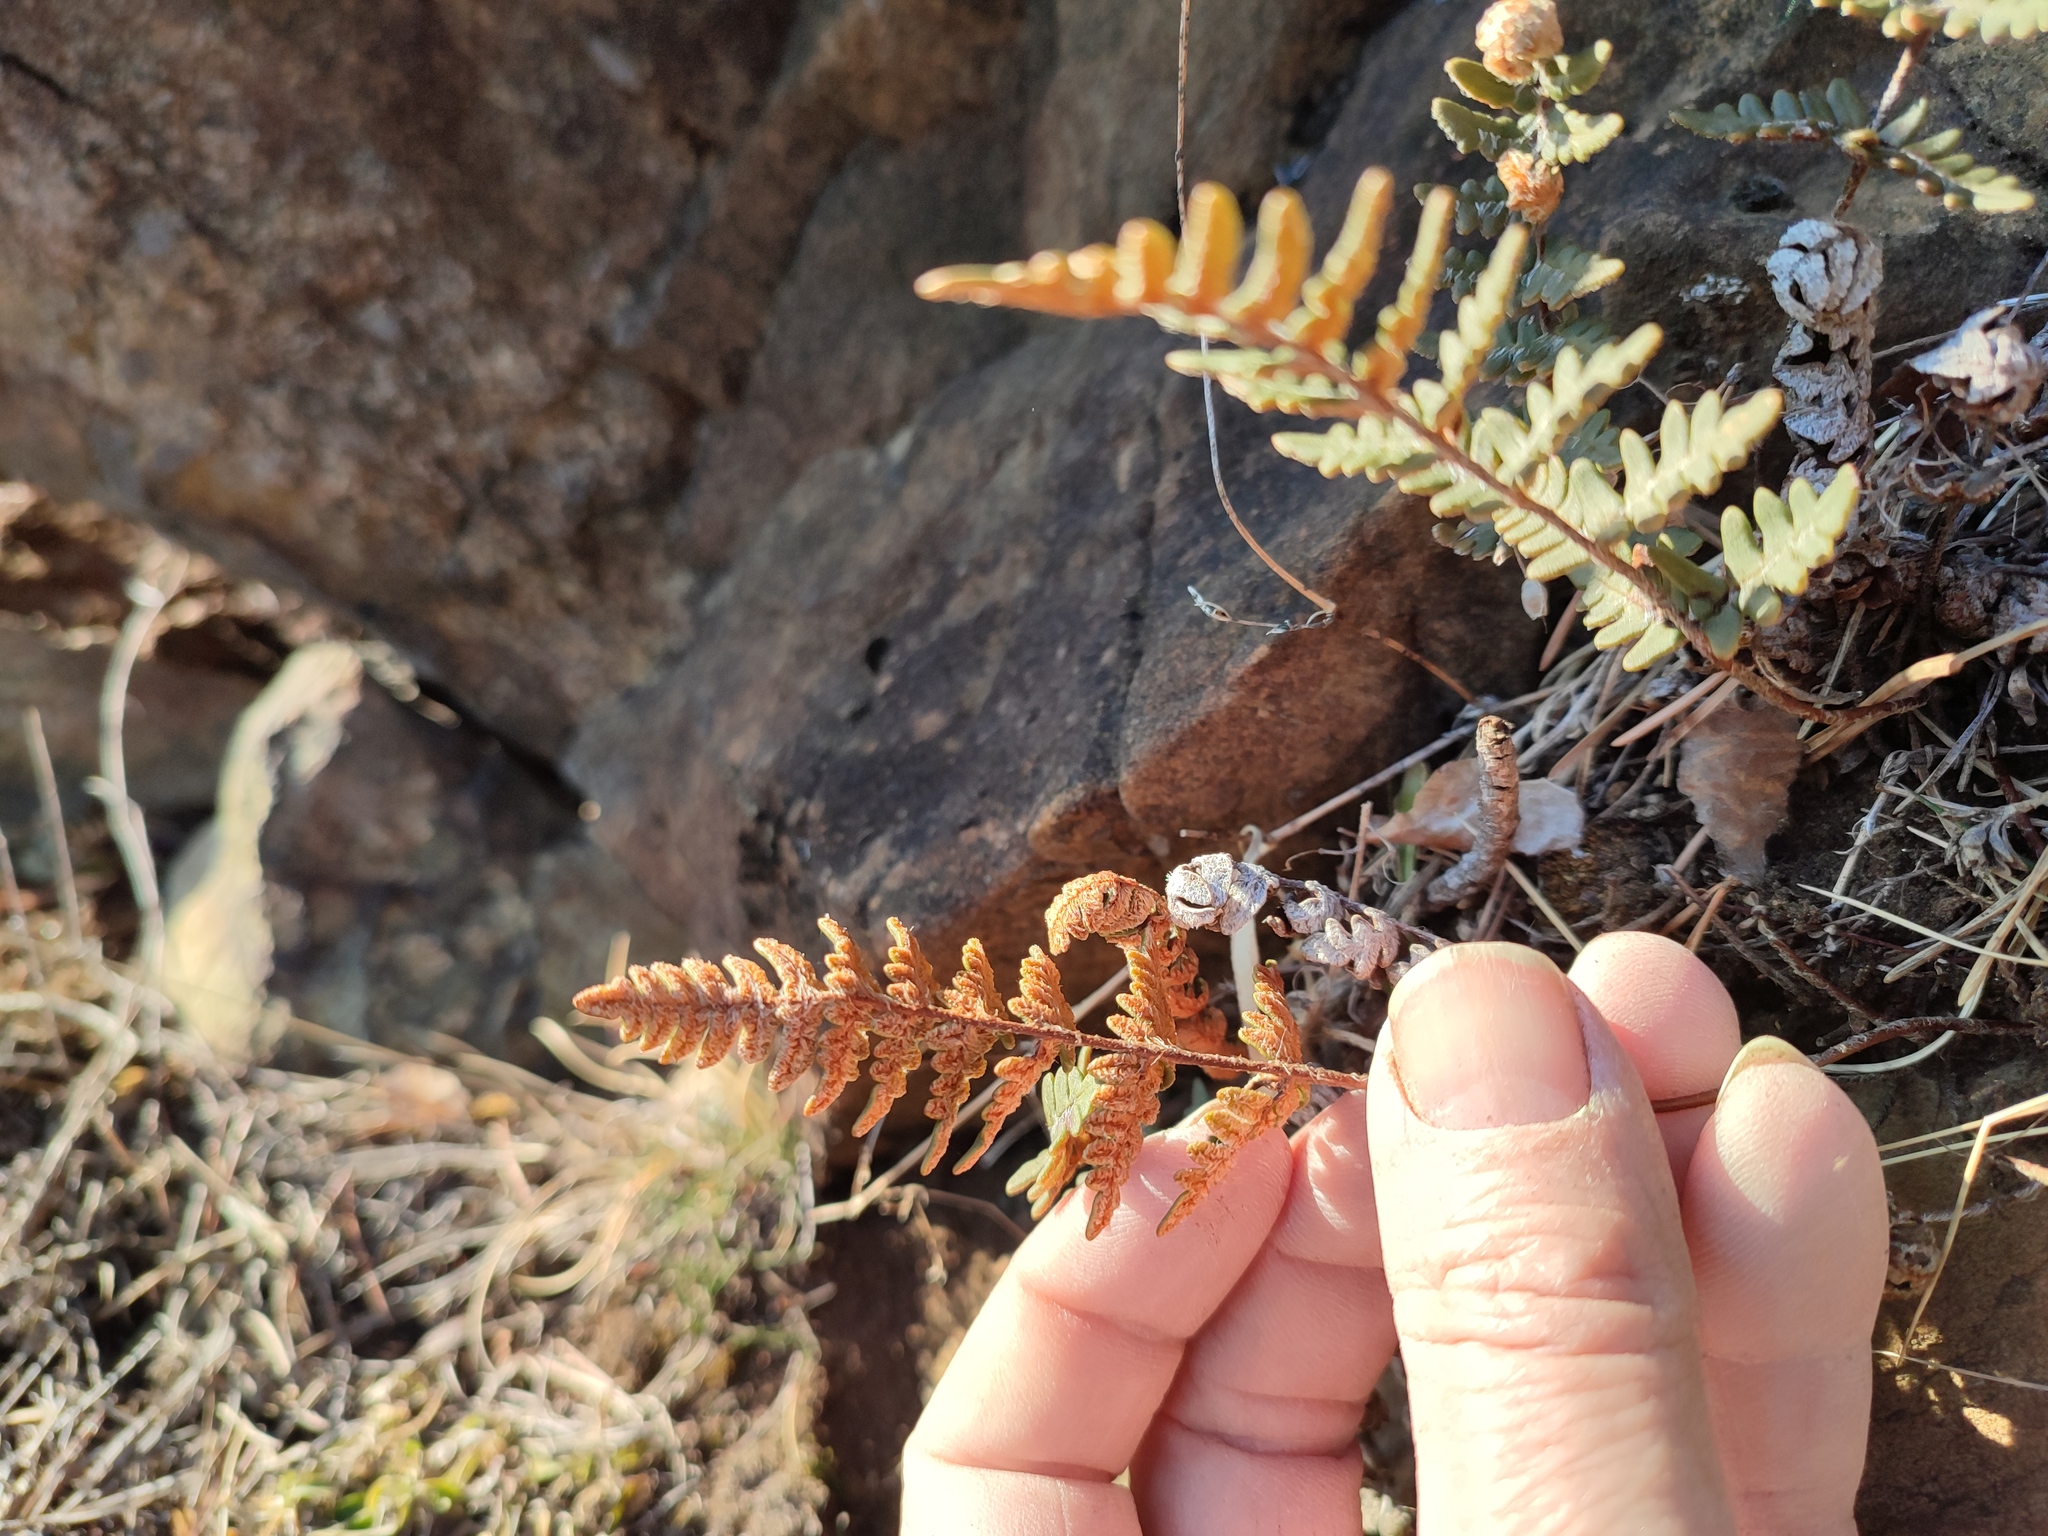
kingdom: Plantae
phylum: Tracheophyta
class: Polypodiopsida
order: Polypodiales
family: Pteridaceae
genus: Paragymnopteris
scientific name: Paragymnopteris marantae
